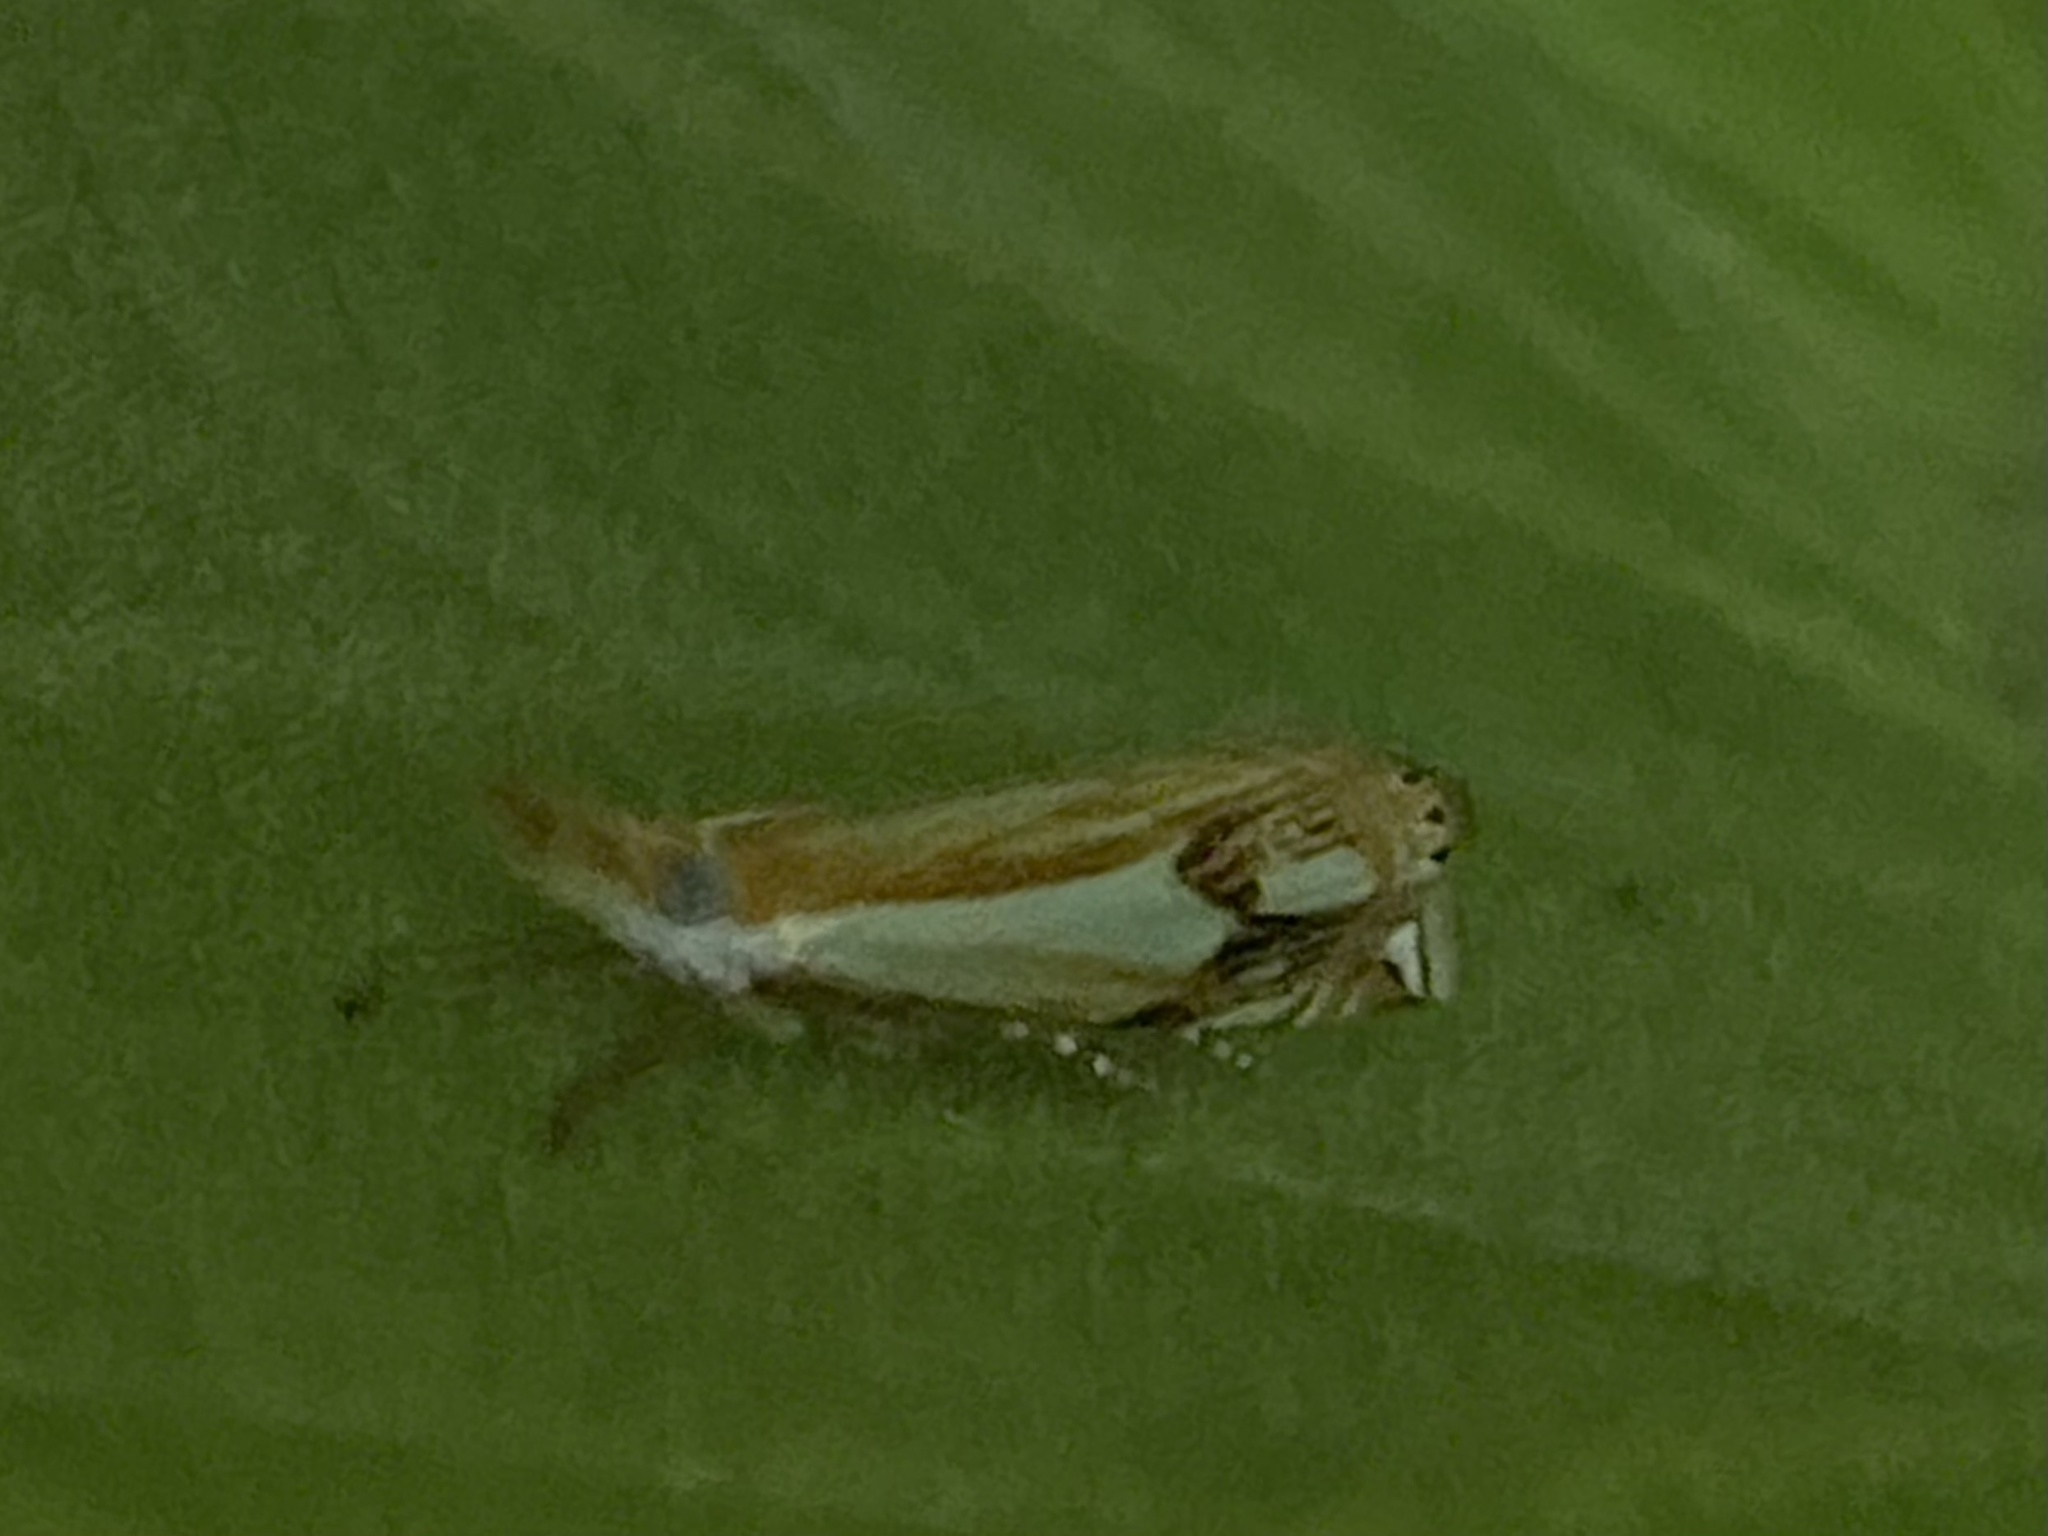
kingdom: Animalia
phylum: Arthropoda
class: Insecta
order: Lepidoptera
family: Crambidae
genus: Crambus
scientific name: Crambus agitatellus
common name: Double-banded grass-veneer
